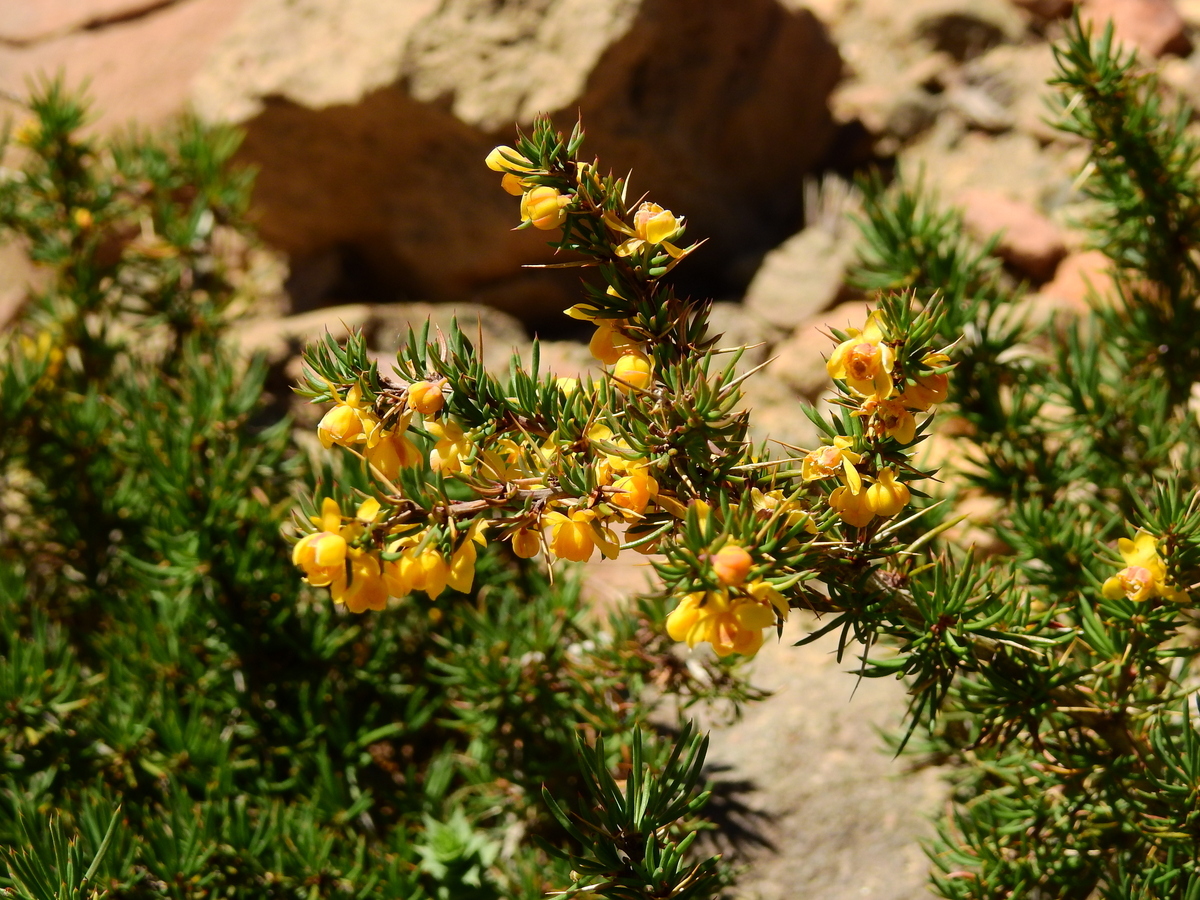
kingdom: Plantae
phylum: Tracheophyta
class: Magnoliopsida
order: Ranunculales
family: Berberidaceae
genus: Berberis
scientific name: Berberis empetrifolia
